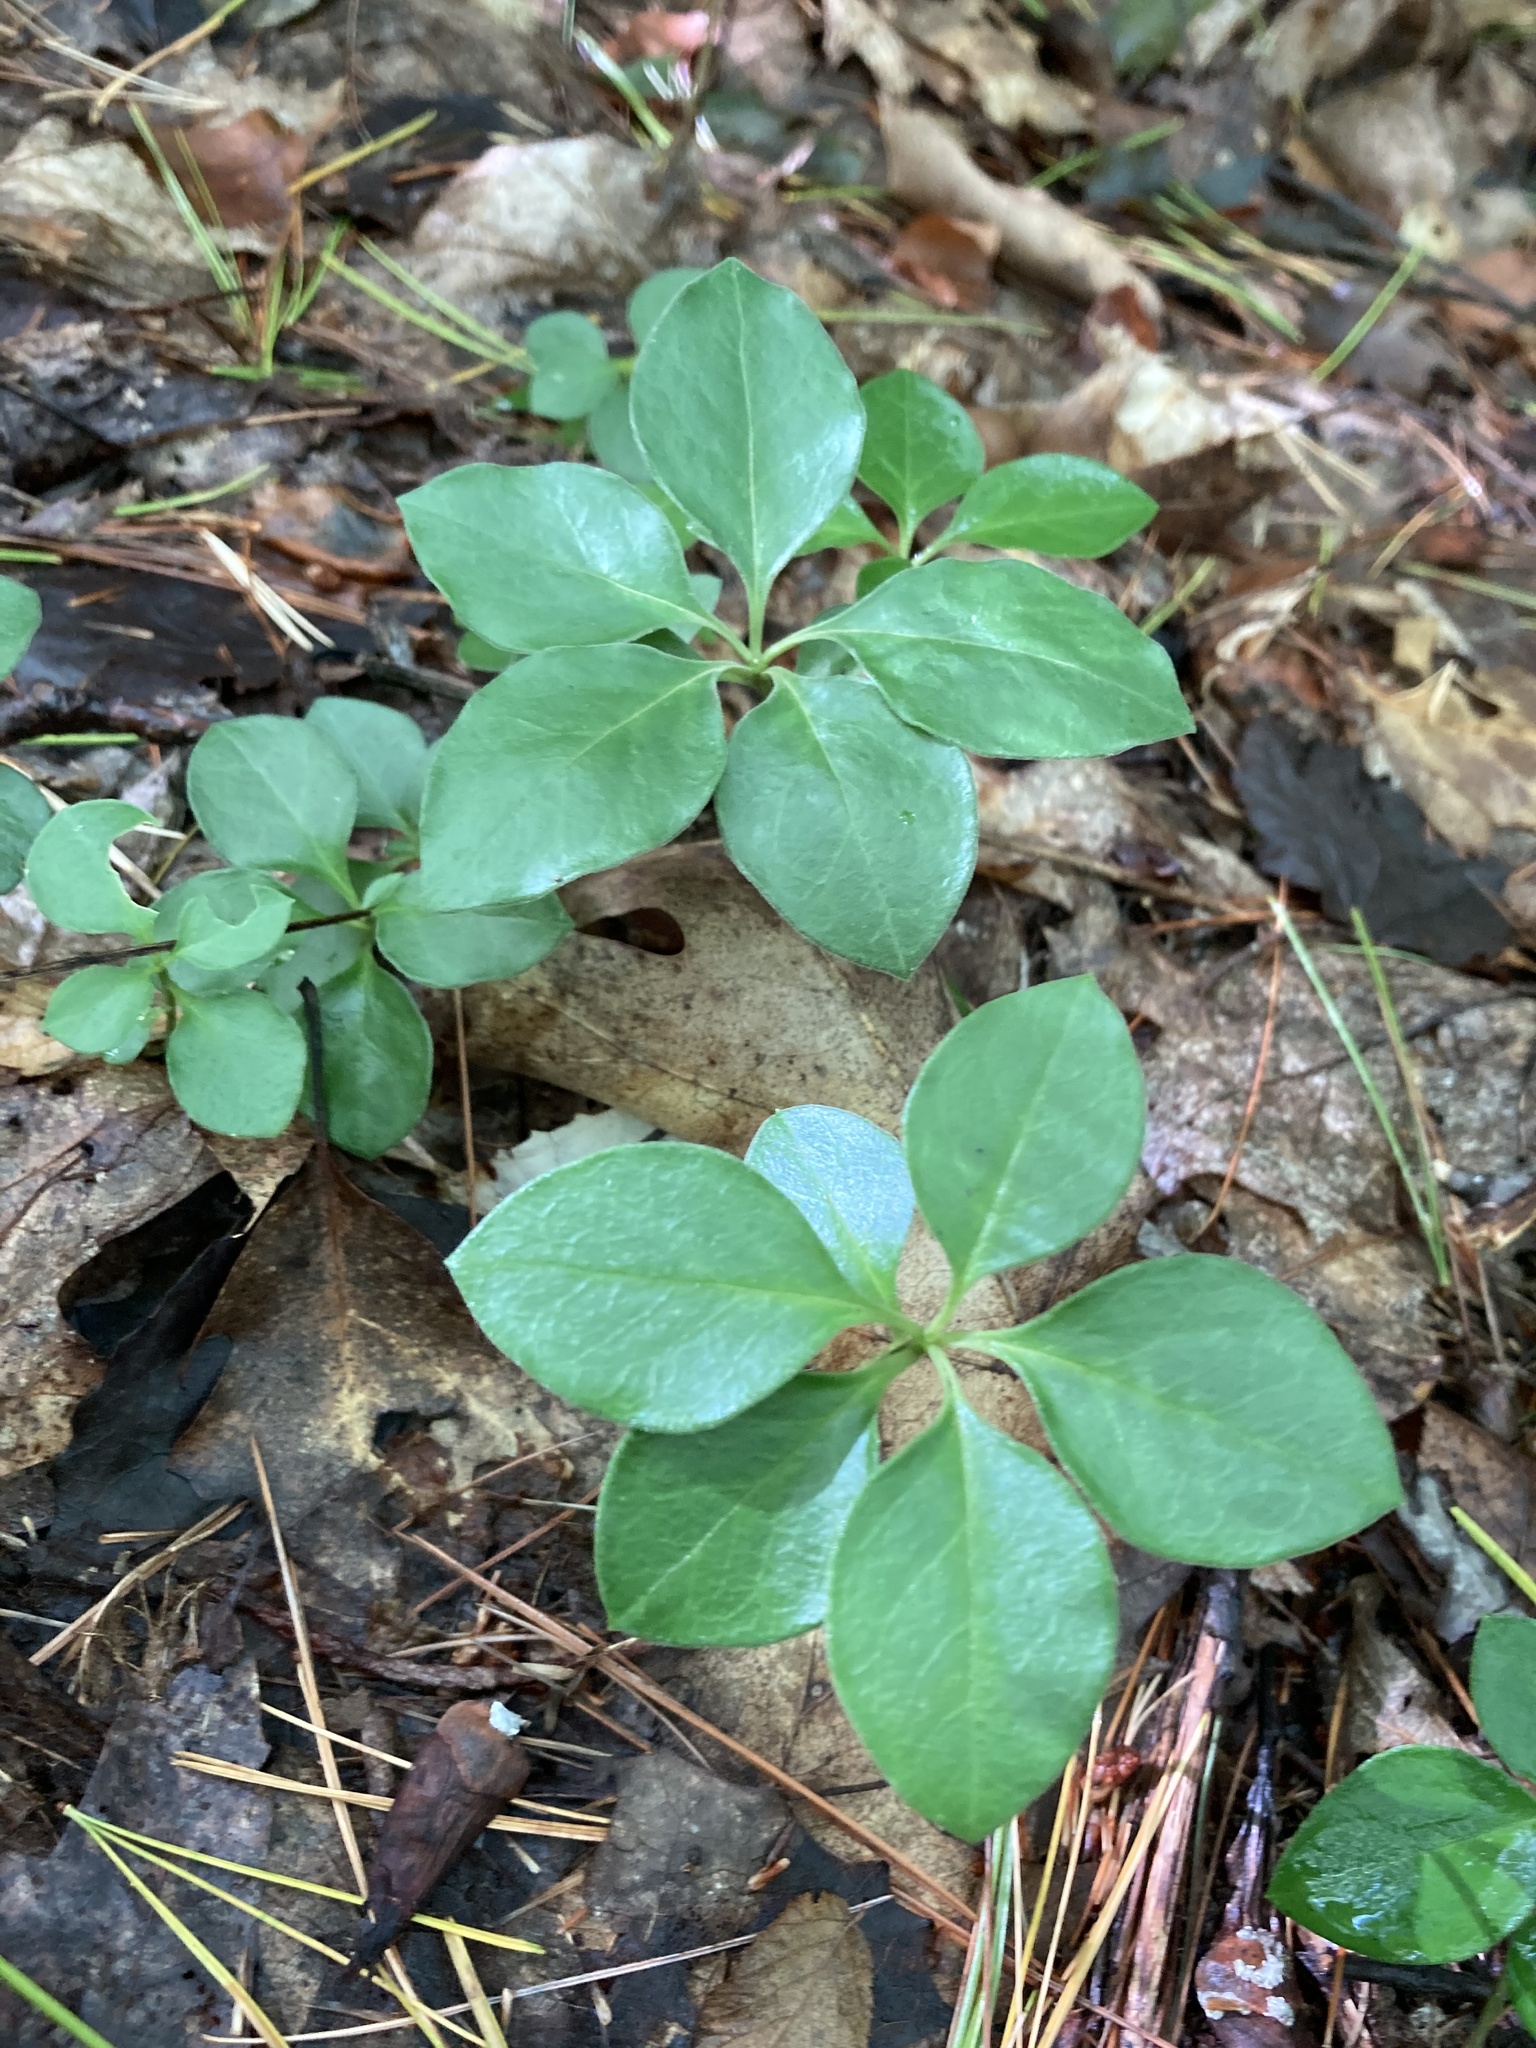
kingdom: Plantae
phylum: Tracheophyta
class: Magnoliopsida
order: Fabales
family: Polygalaceae
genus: Polygaloides
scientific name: Polygaloides paucifolia
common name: Bird-on-the-wing
